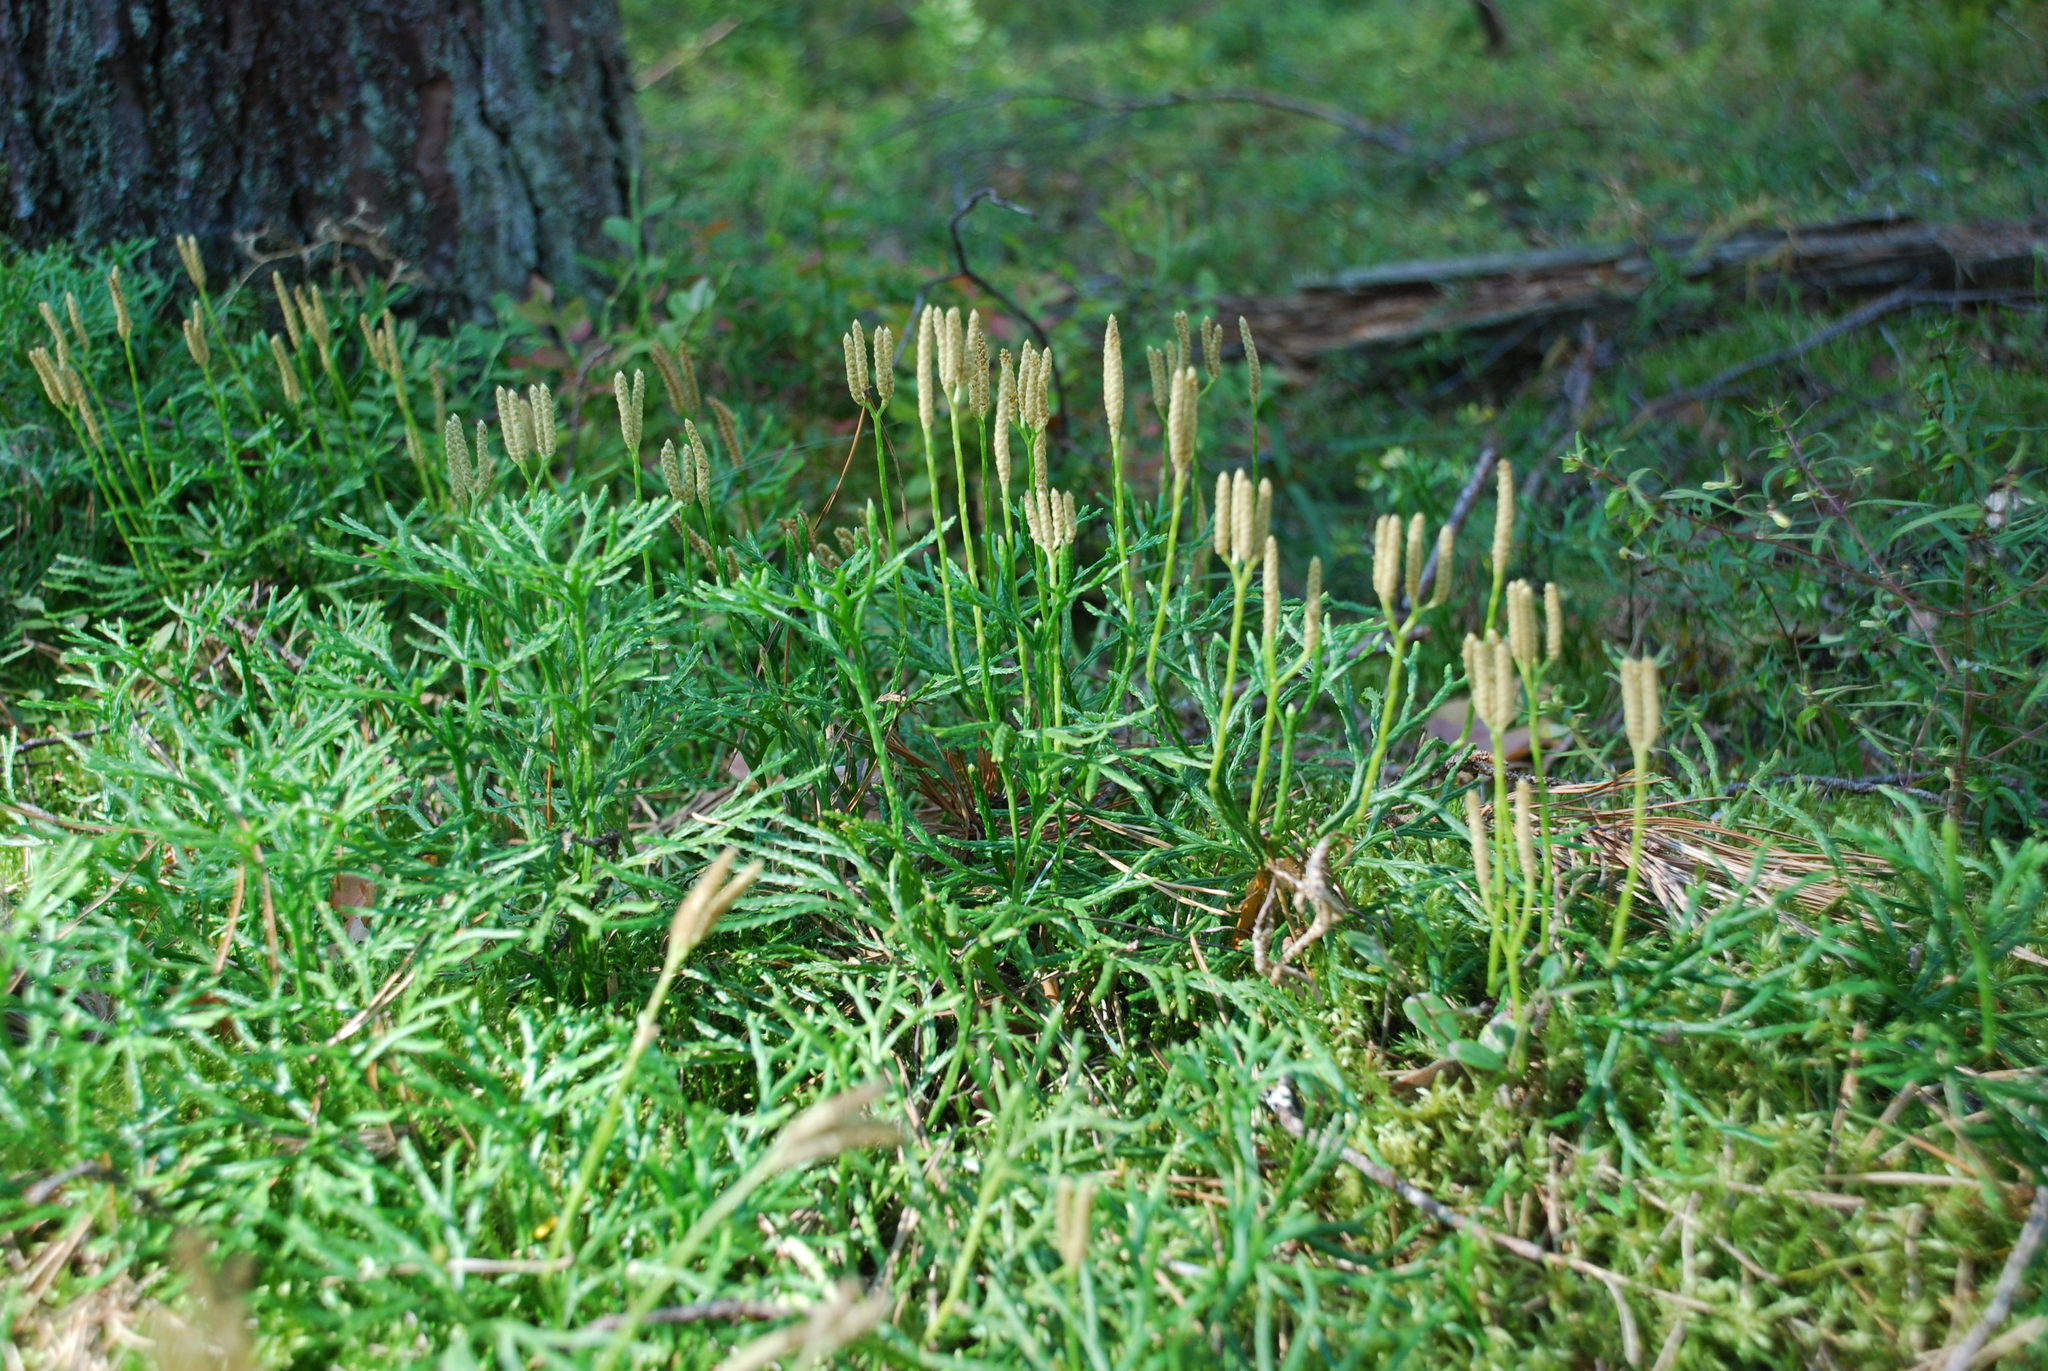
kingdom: Plantae
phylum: Tracheophyta
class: Lycopodiopsida
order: Lycopodiales
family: Lycopodiaceae
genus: Diphasiastrum
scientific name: Diphasiastrum complanatum
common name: Northern running-pine
